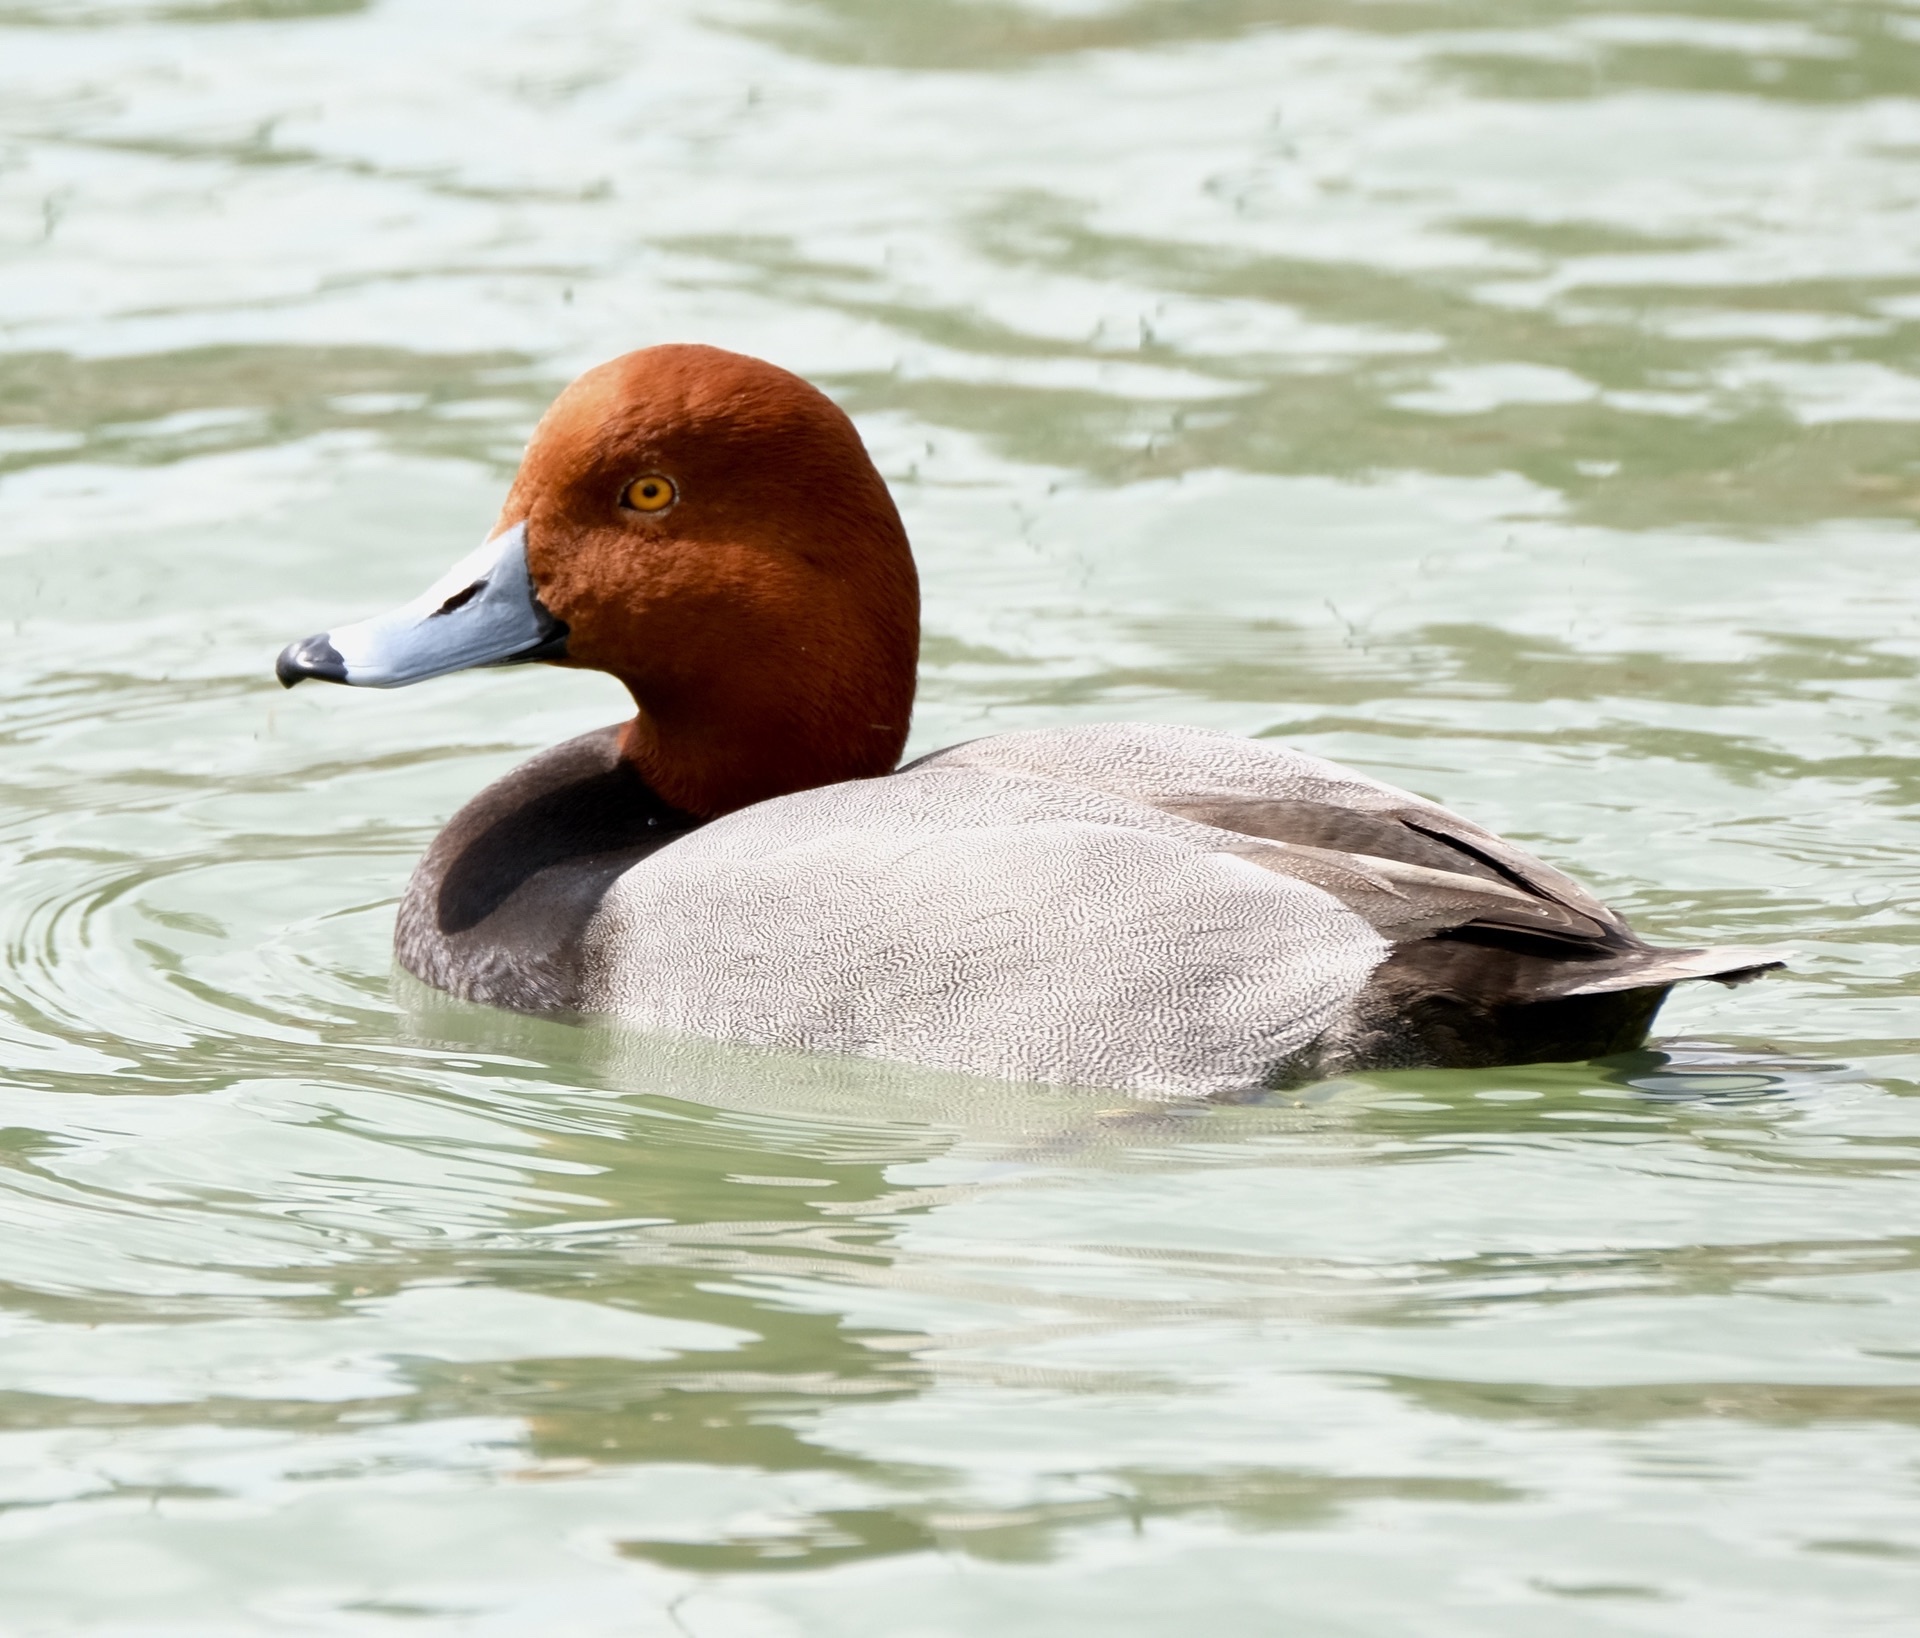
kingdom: Animalia
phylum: Chordata
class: Aves
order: Anseriformes
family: Anatidae
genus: Aythya
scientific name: Aythya americana
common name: Redhead
